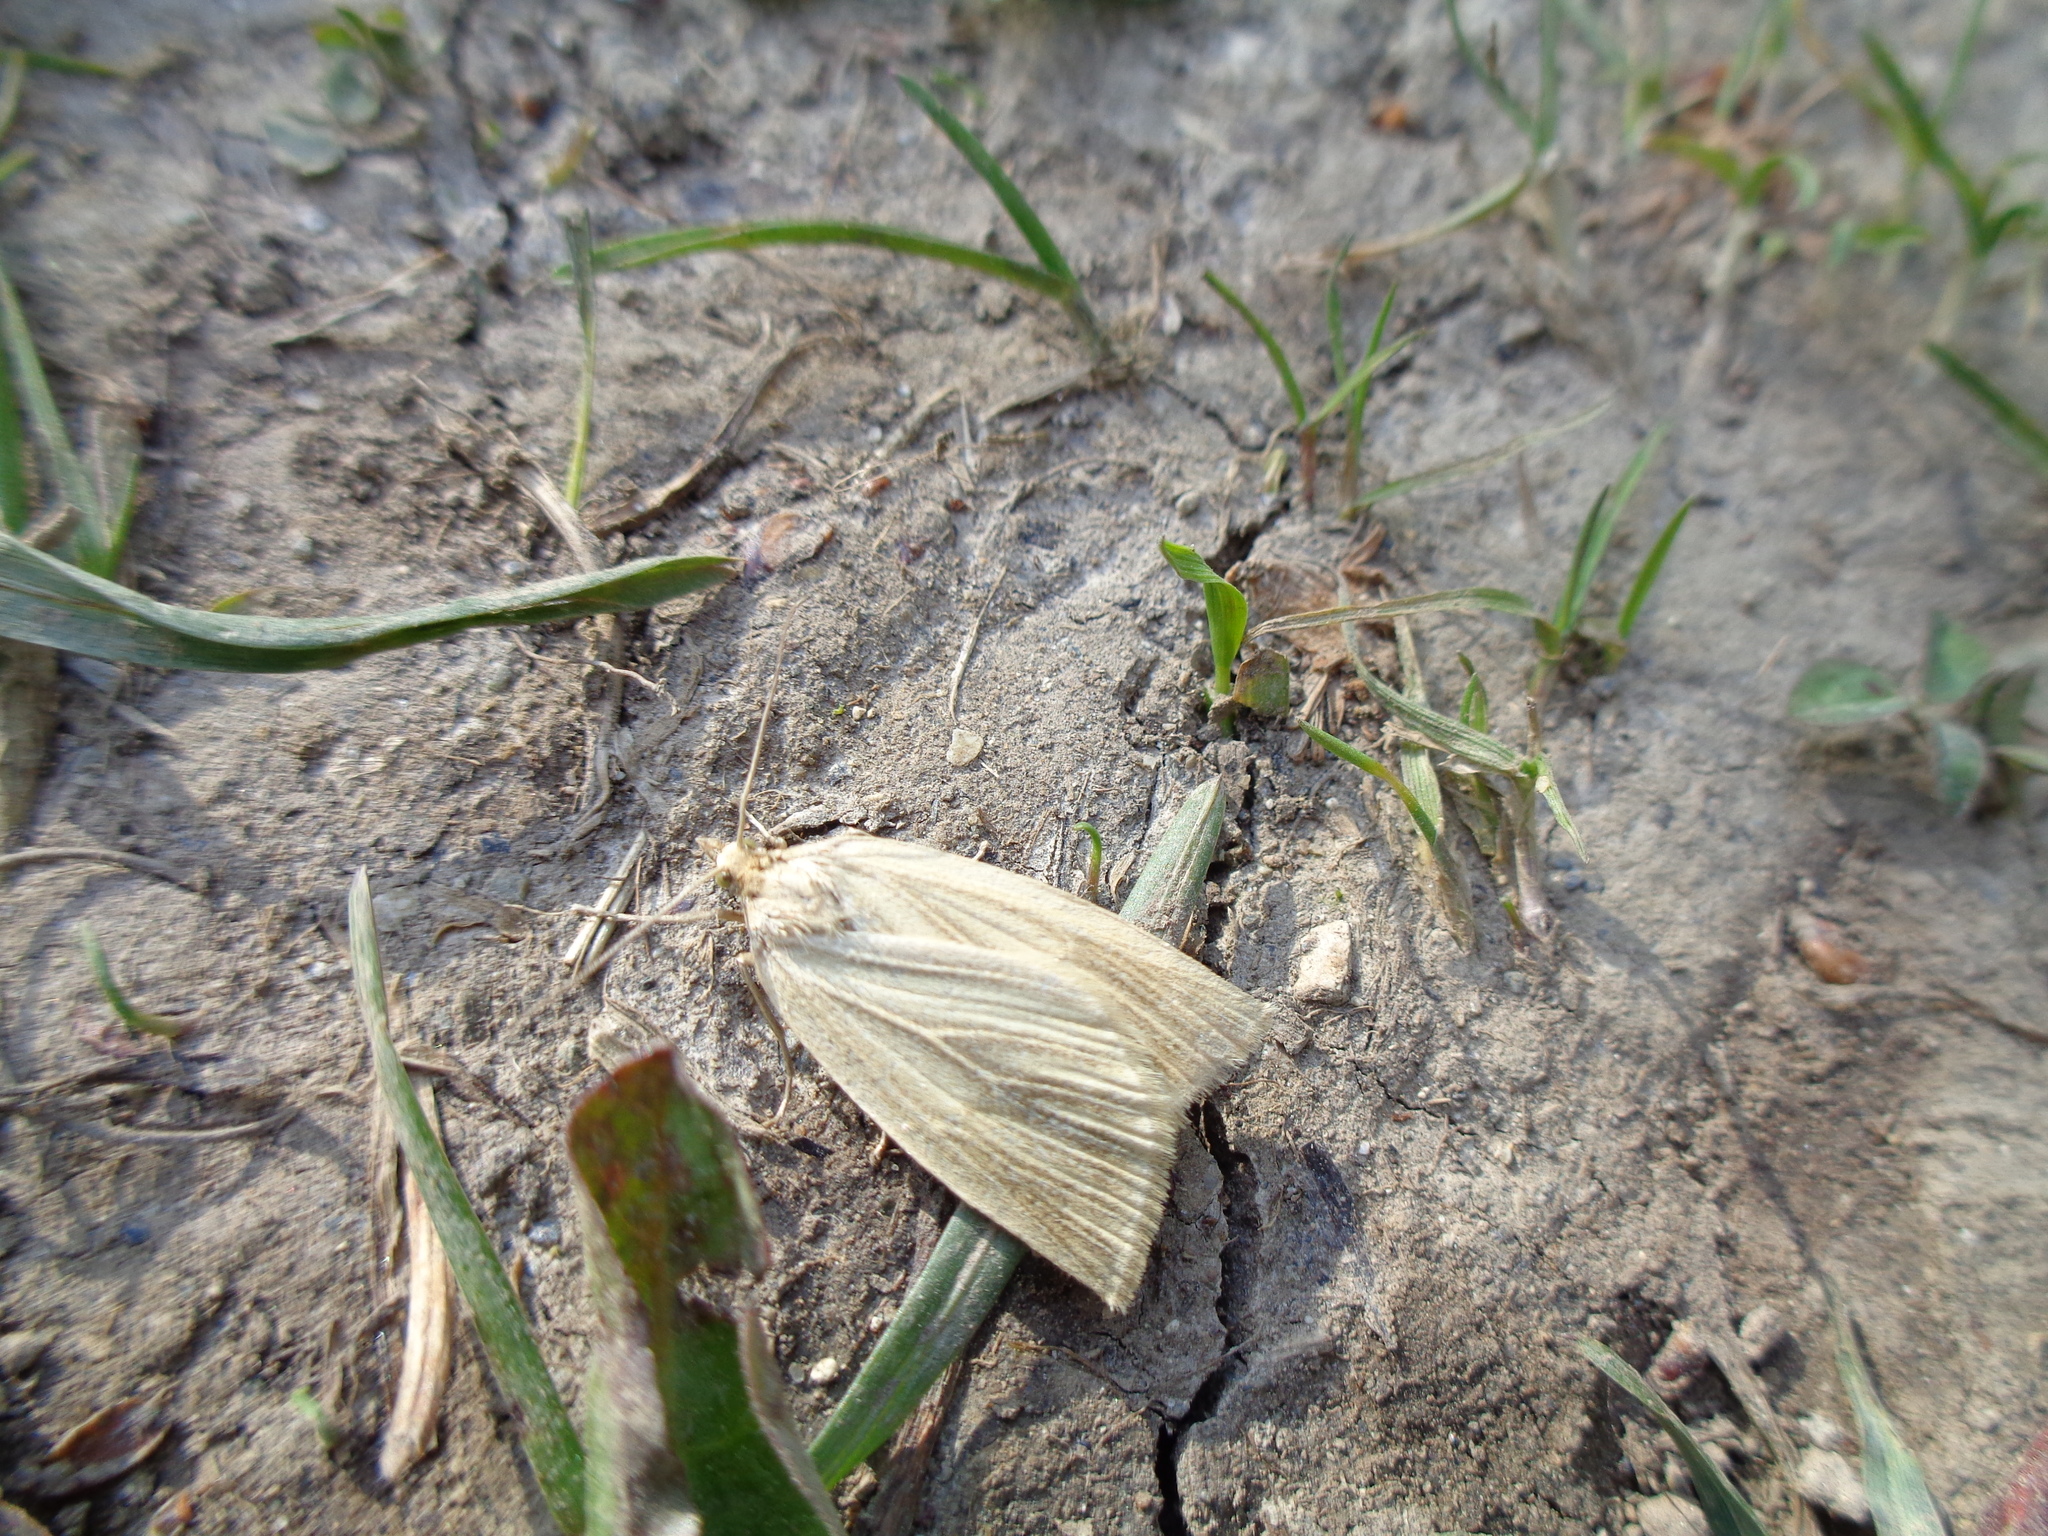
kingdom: Animalia
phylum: Arthropoda
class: Insecta
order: Lepidoptera
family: Geometridae
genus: Psilaspilates
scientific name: Psilaspilates venata
